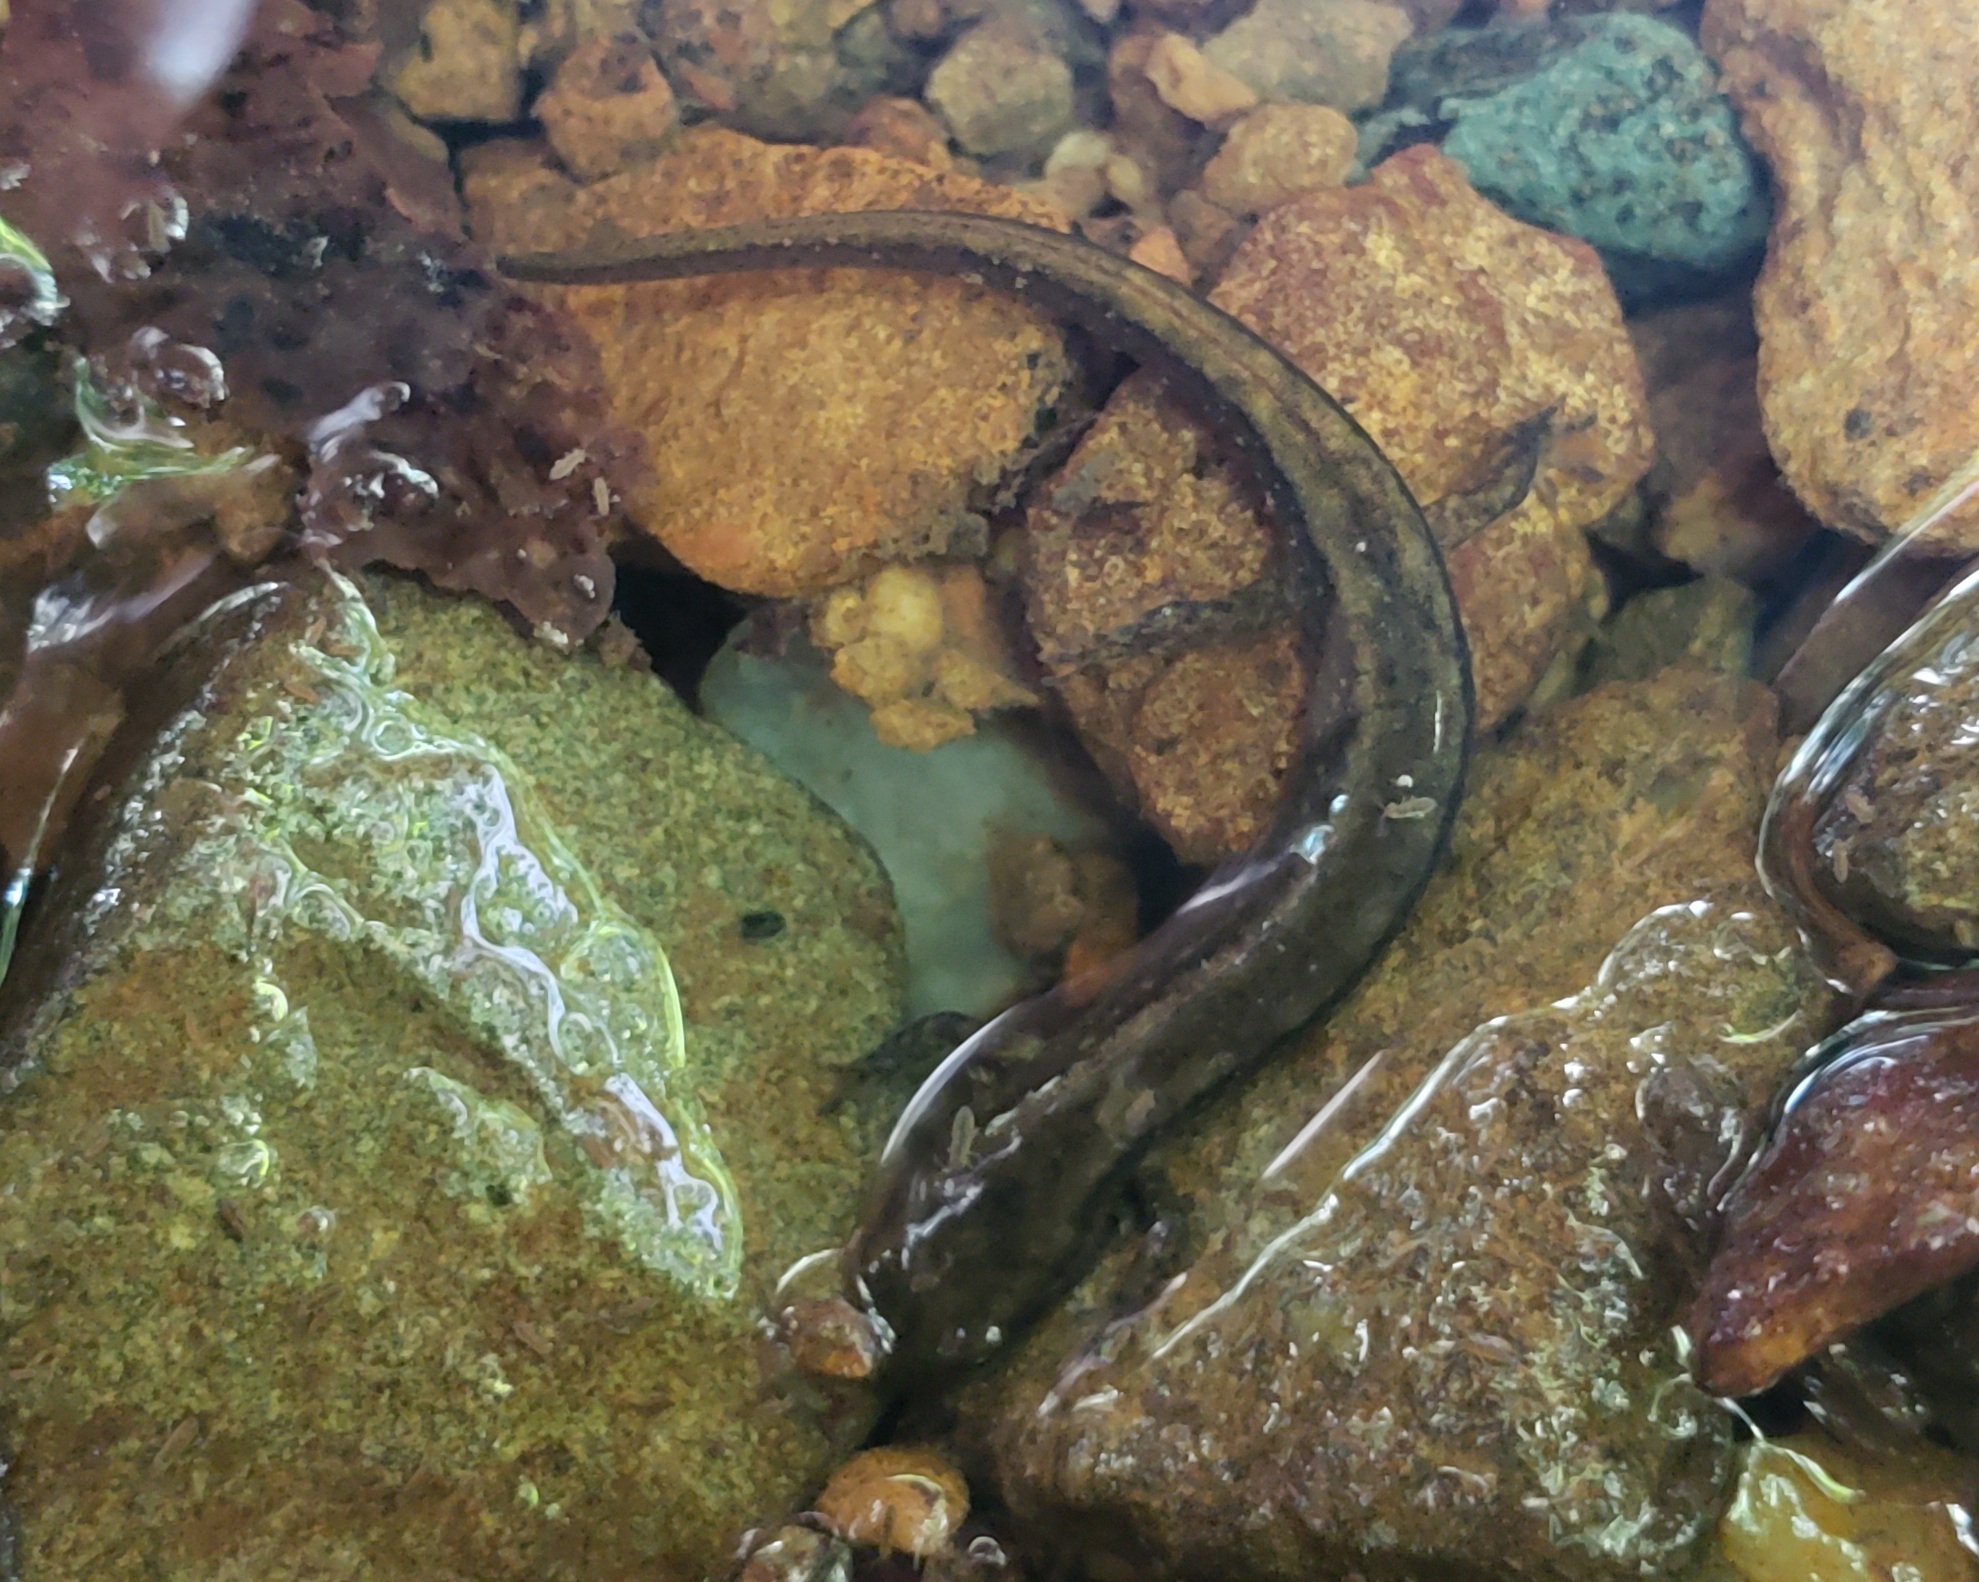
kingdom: Animalia
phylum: Chordata
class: Amphibia
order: Caudata
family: Plethodontidae
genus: Eurycea
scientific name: Eurycea bislineata
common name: Northern two-lined salamander
